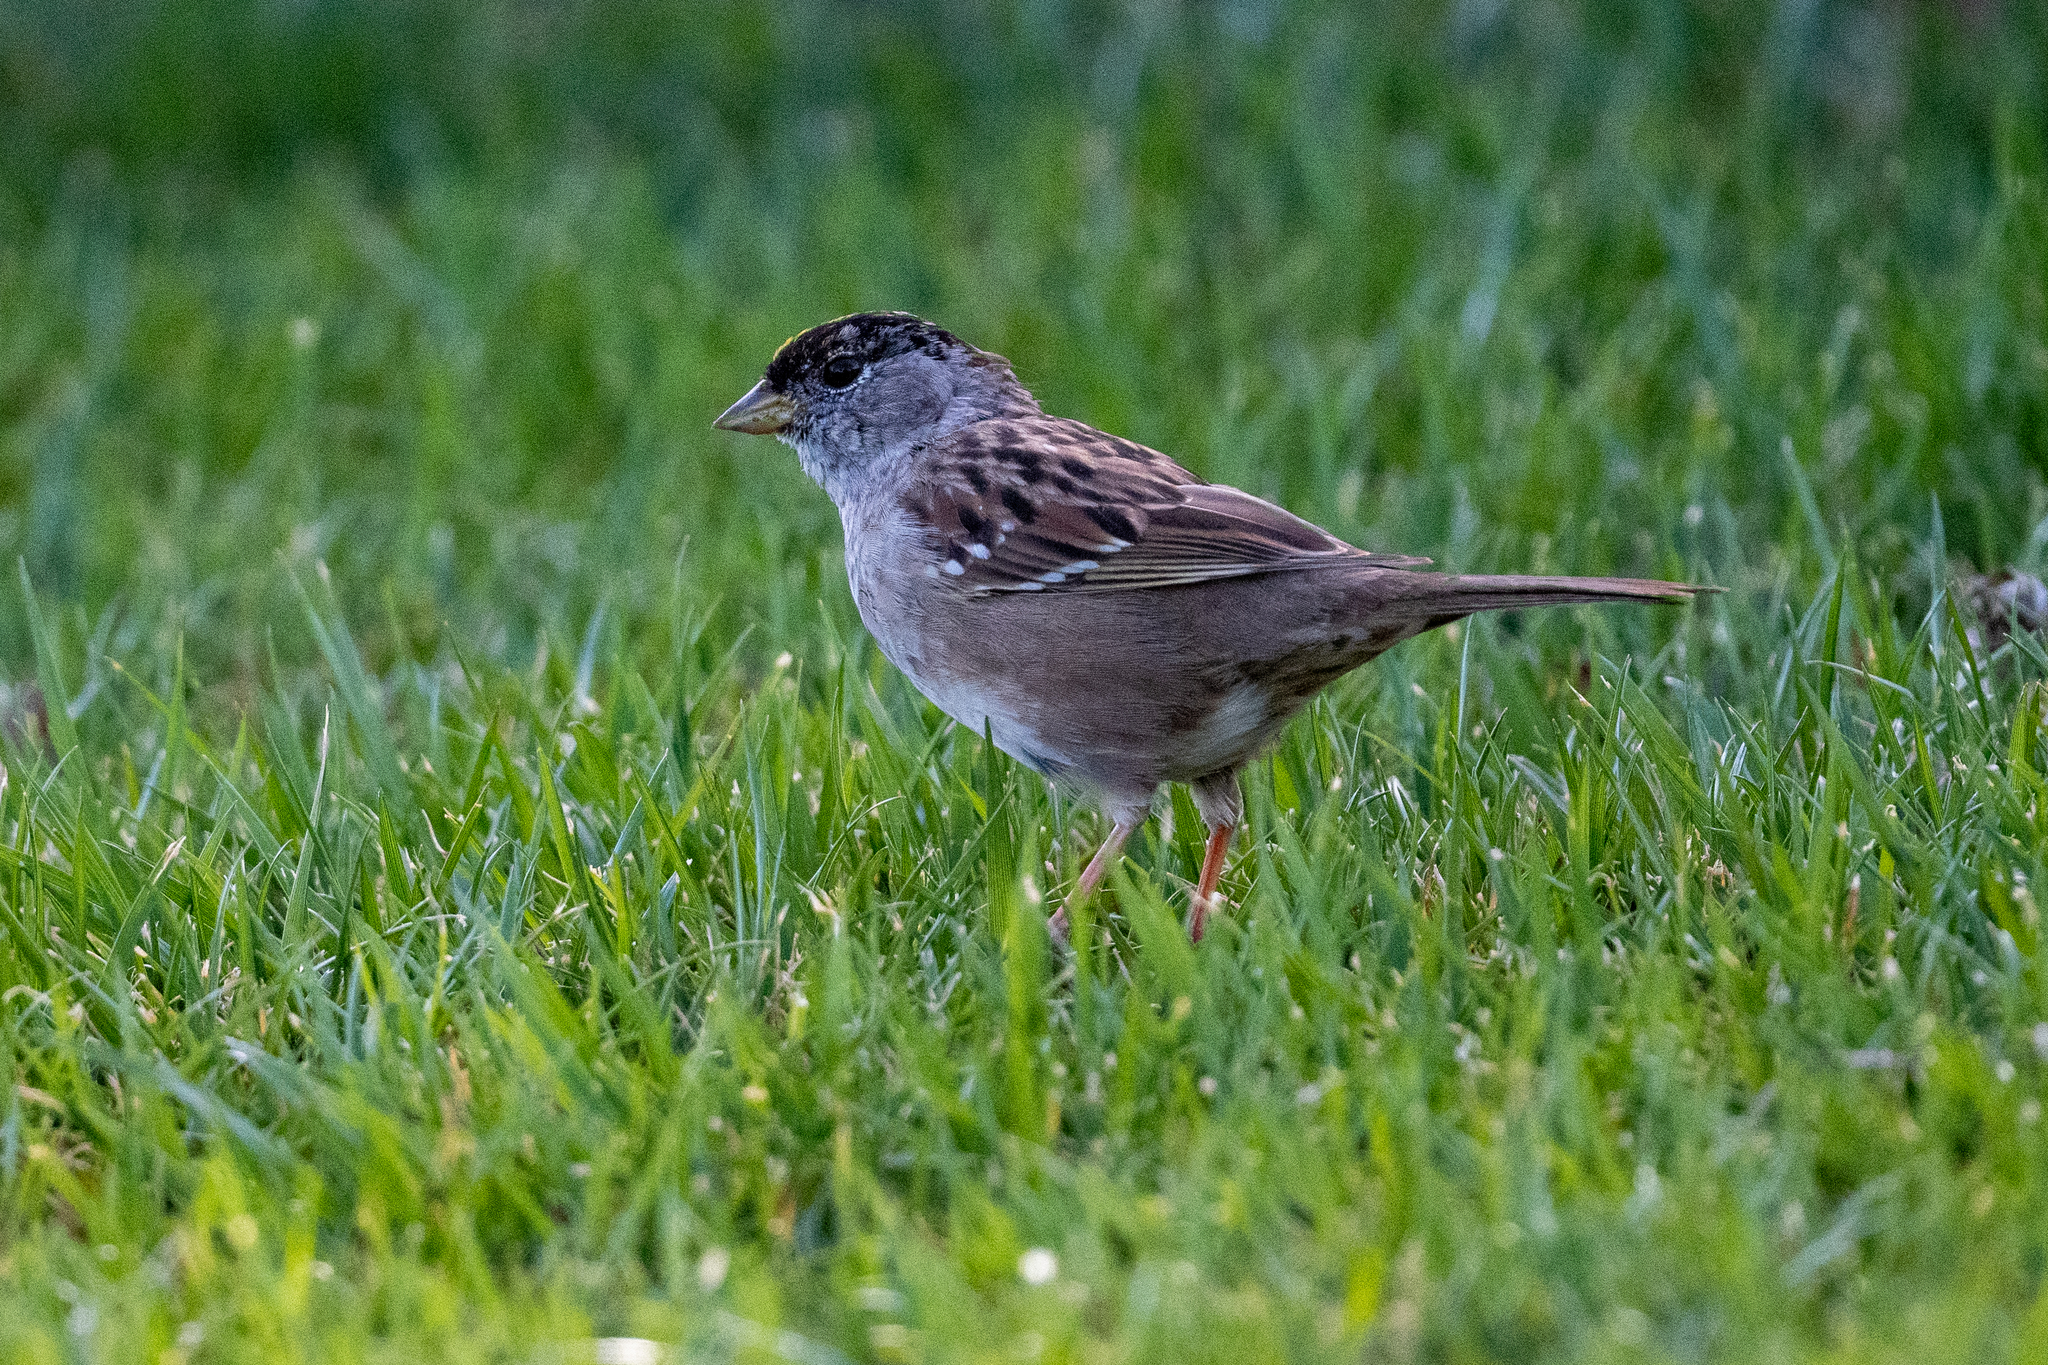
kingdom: Animalia
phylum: Chordata
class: Aves
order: Passeriformes
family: Passerellidae
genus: Zonotrichia
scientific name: Zonotrichia atricapilla
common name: Golden-crowned sparrow
